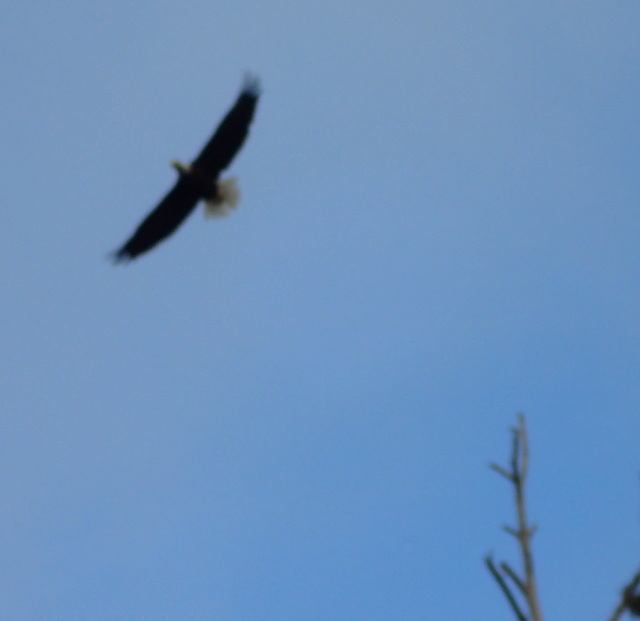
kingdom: Animalia
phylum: Chordata
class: Aves
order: Accipitriformes
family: Accipitridae
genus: Haliaeetus
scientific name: Haliaeetus leucocephalus
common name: Bald eagle
